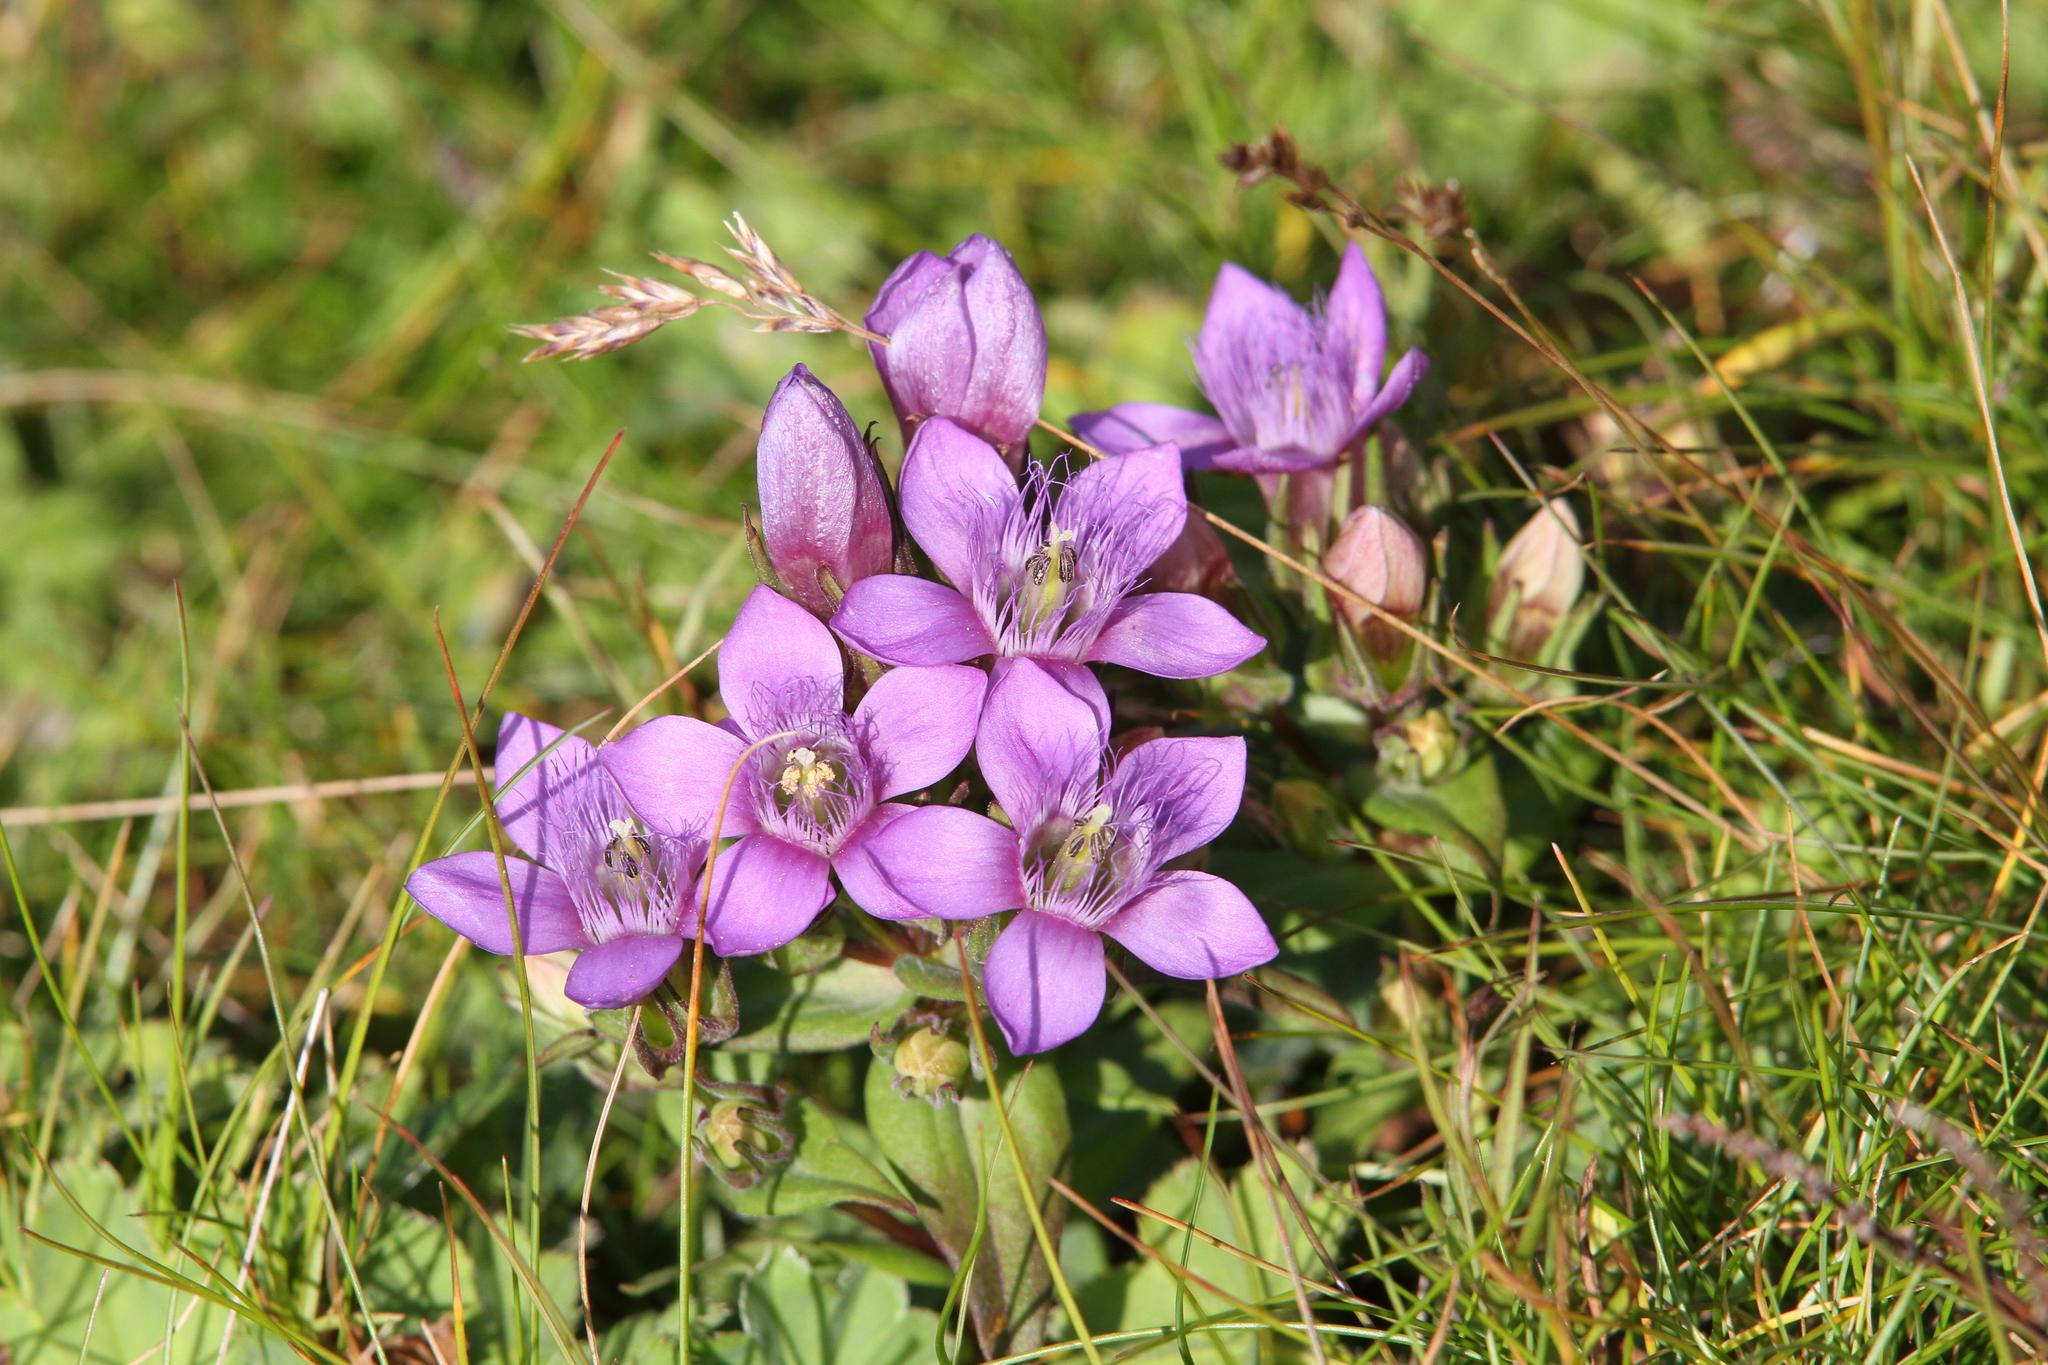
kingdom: Plantae
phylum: Tracheophyta
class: Magnoliopsida
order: Gentianales
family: Gentianaceae
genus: Gentianella
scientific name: Gentianella obtusifolia
